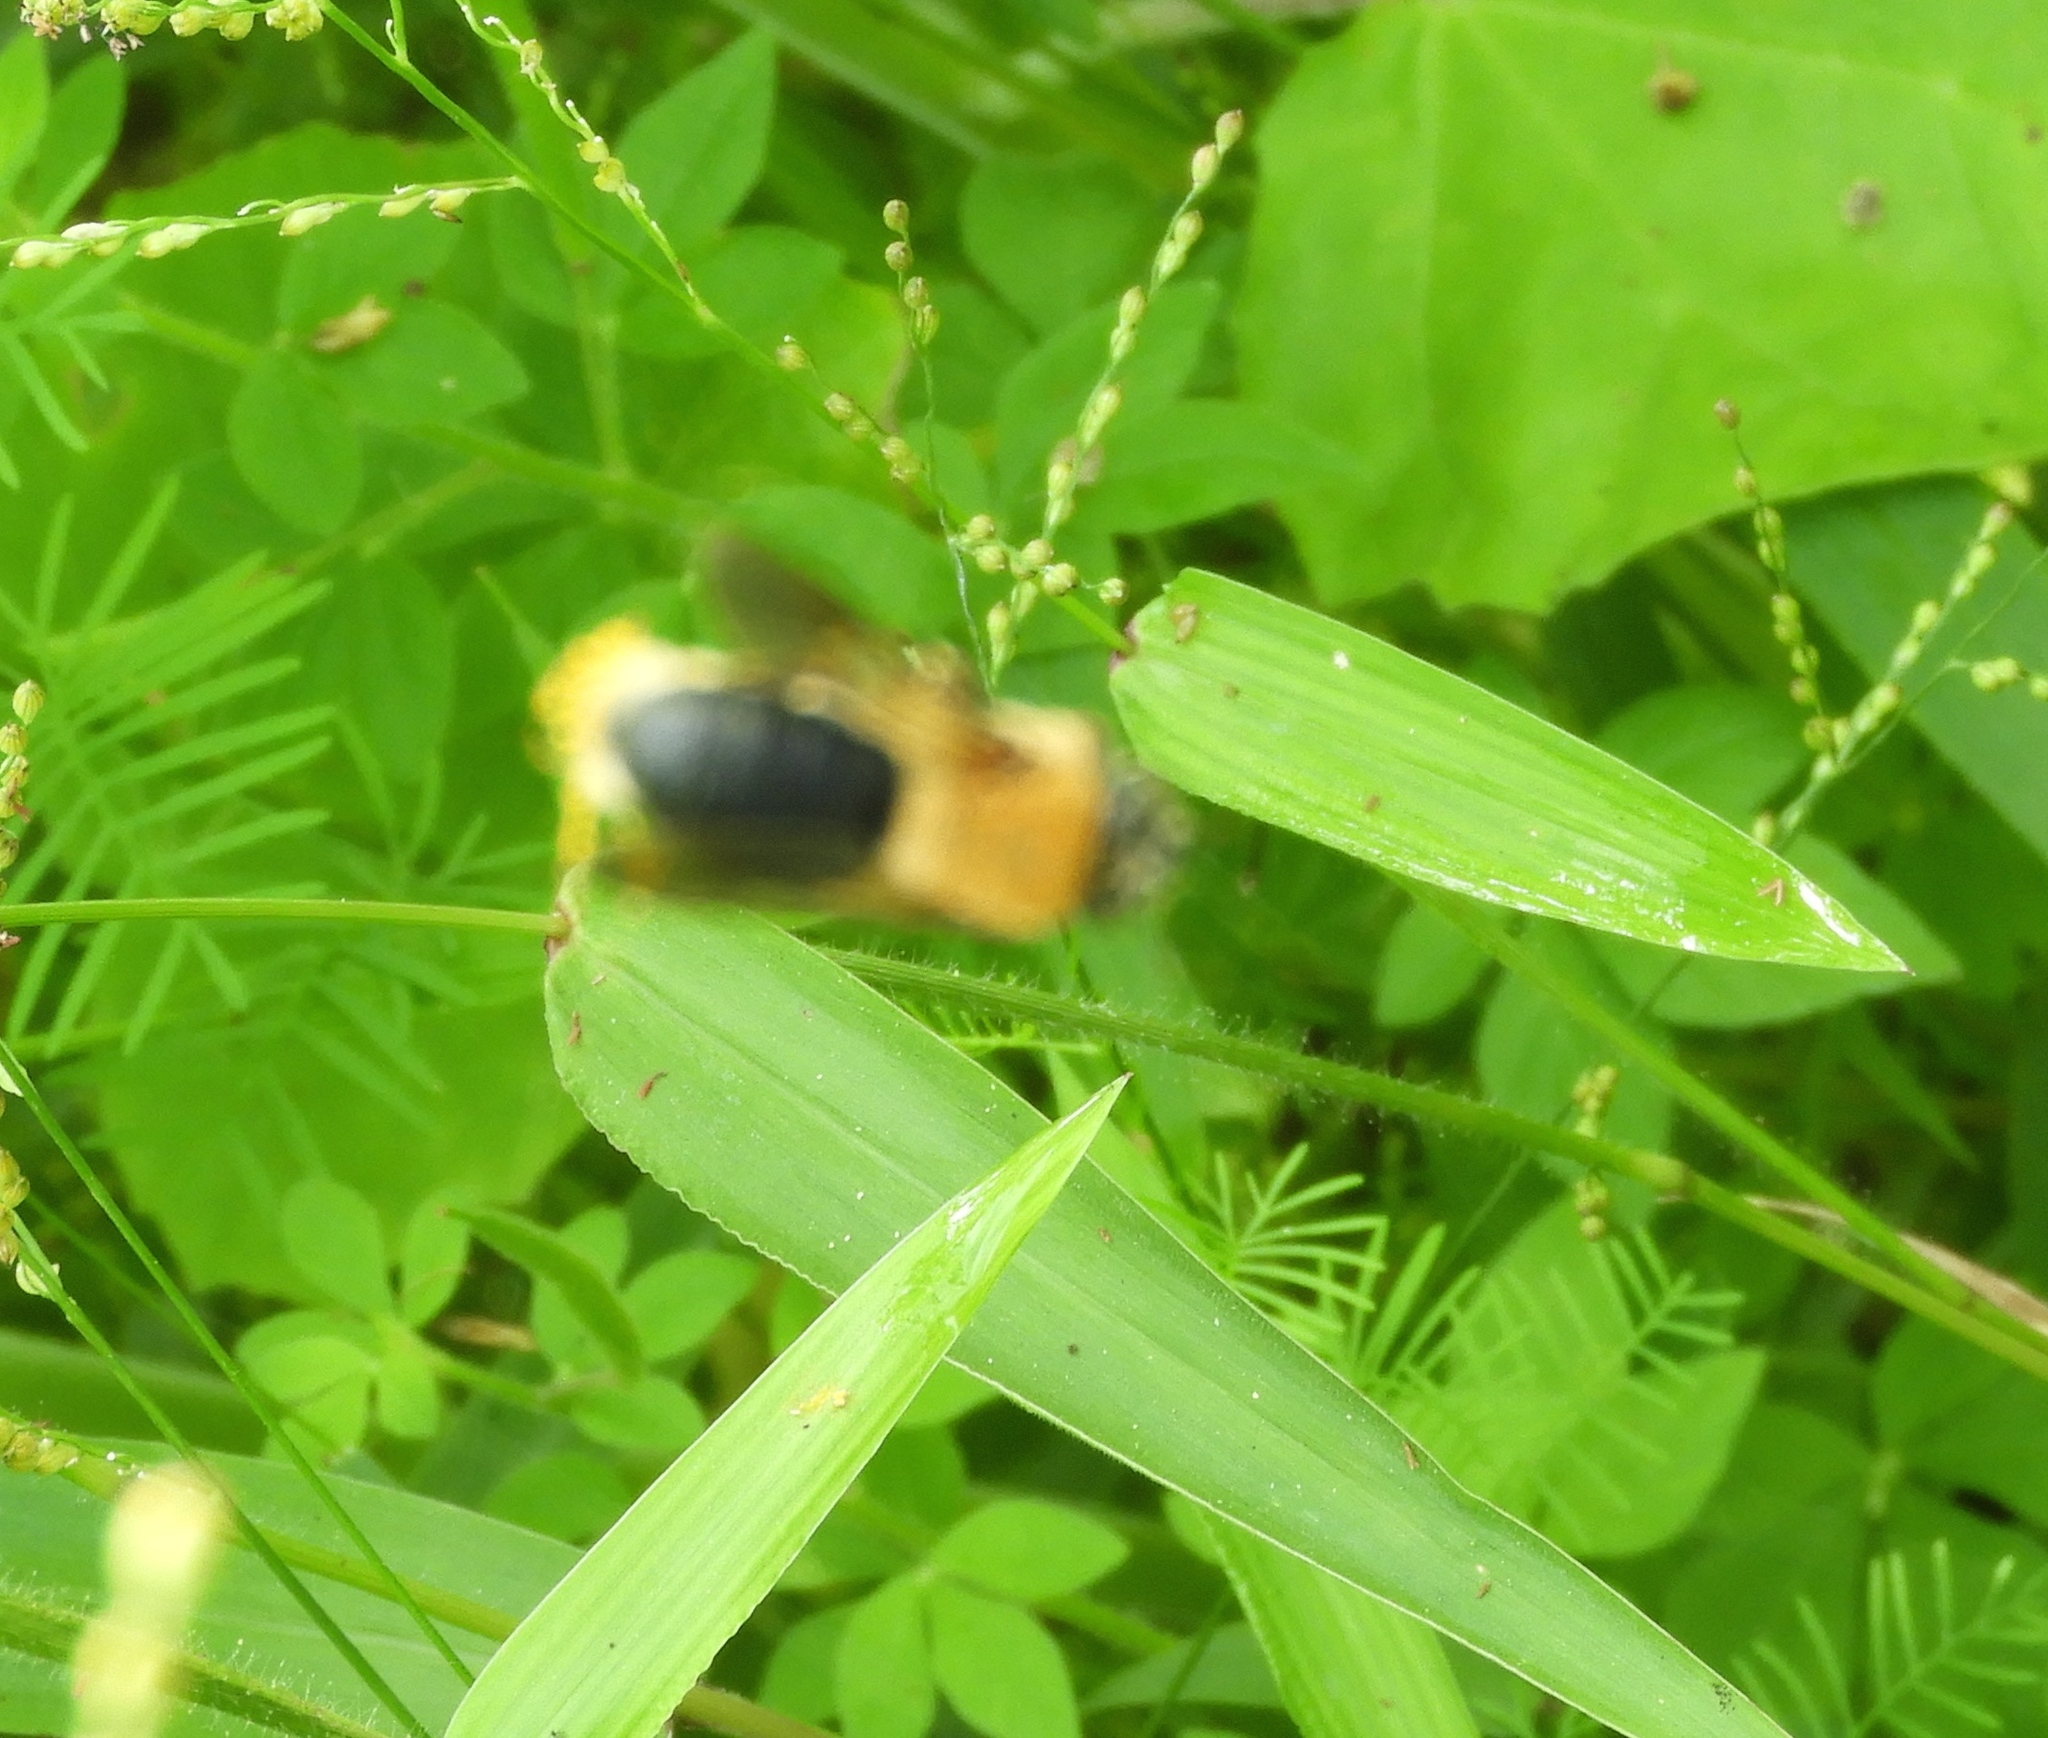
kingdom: Animalia
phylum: Arthropoda
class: Insecta
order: Hymenoptera
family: Oxaeidae
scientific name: Oxaeidae
